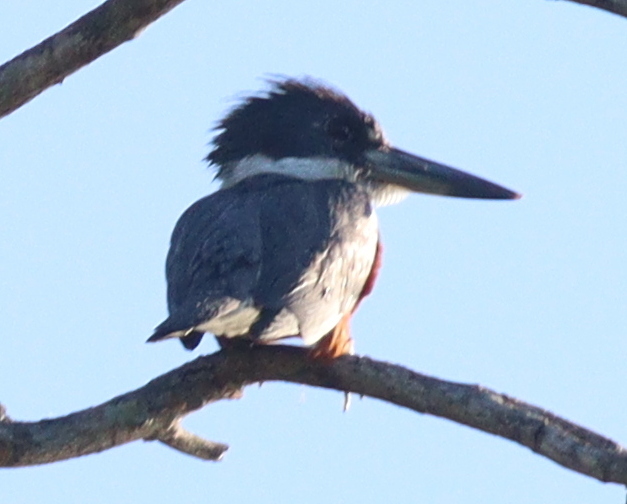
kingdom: Animalia
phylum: Chordata
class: Aves
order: Coraciiformes
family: Alcedinidae
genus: Megaceryle
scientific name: Megaceryle torquata
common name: Ringed kingfisher
